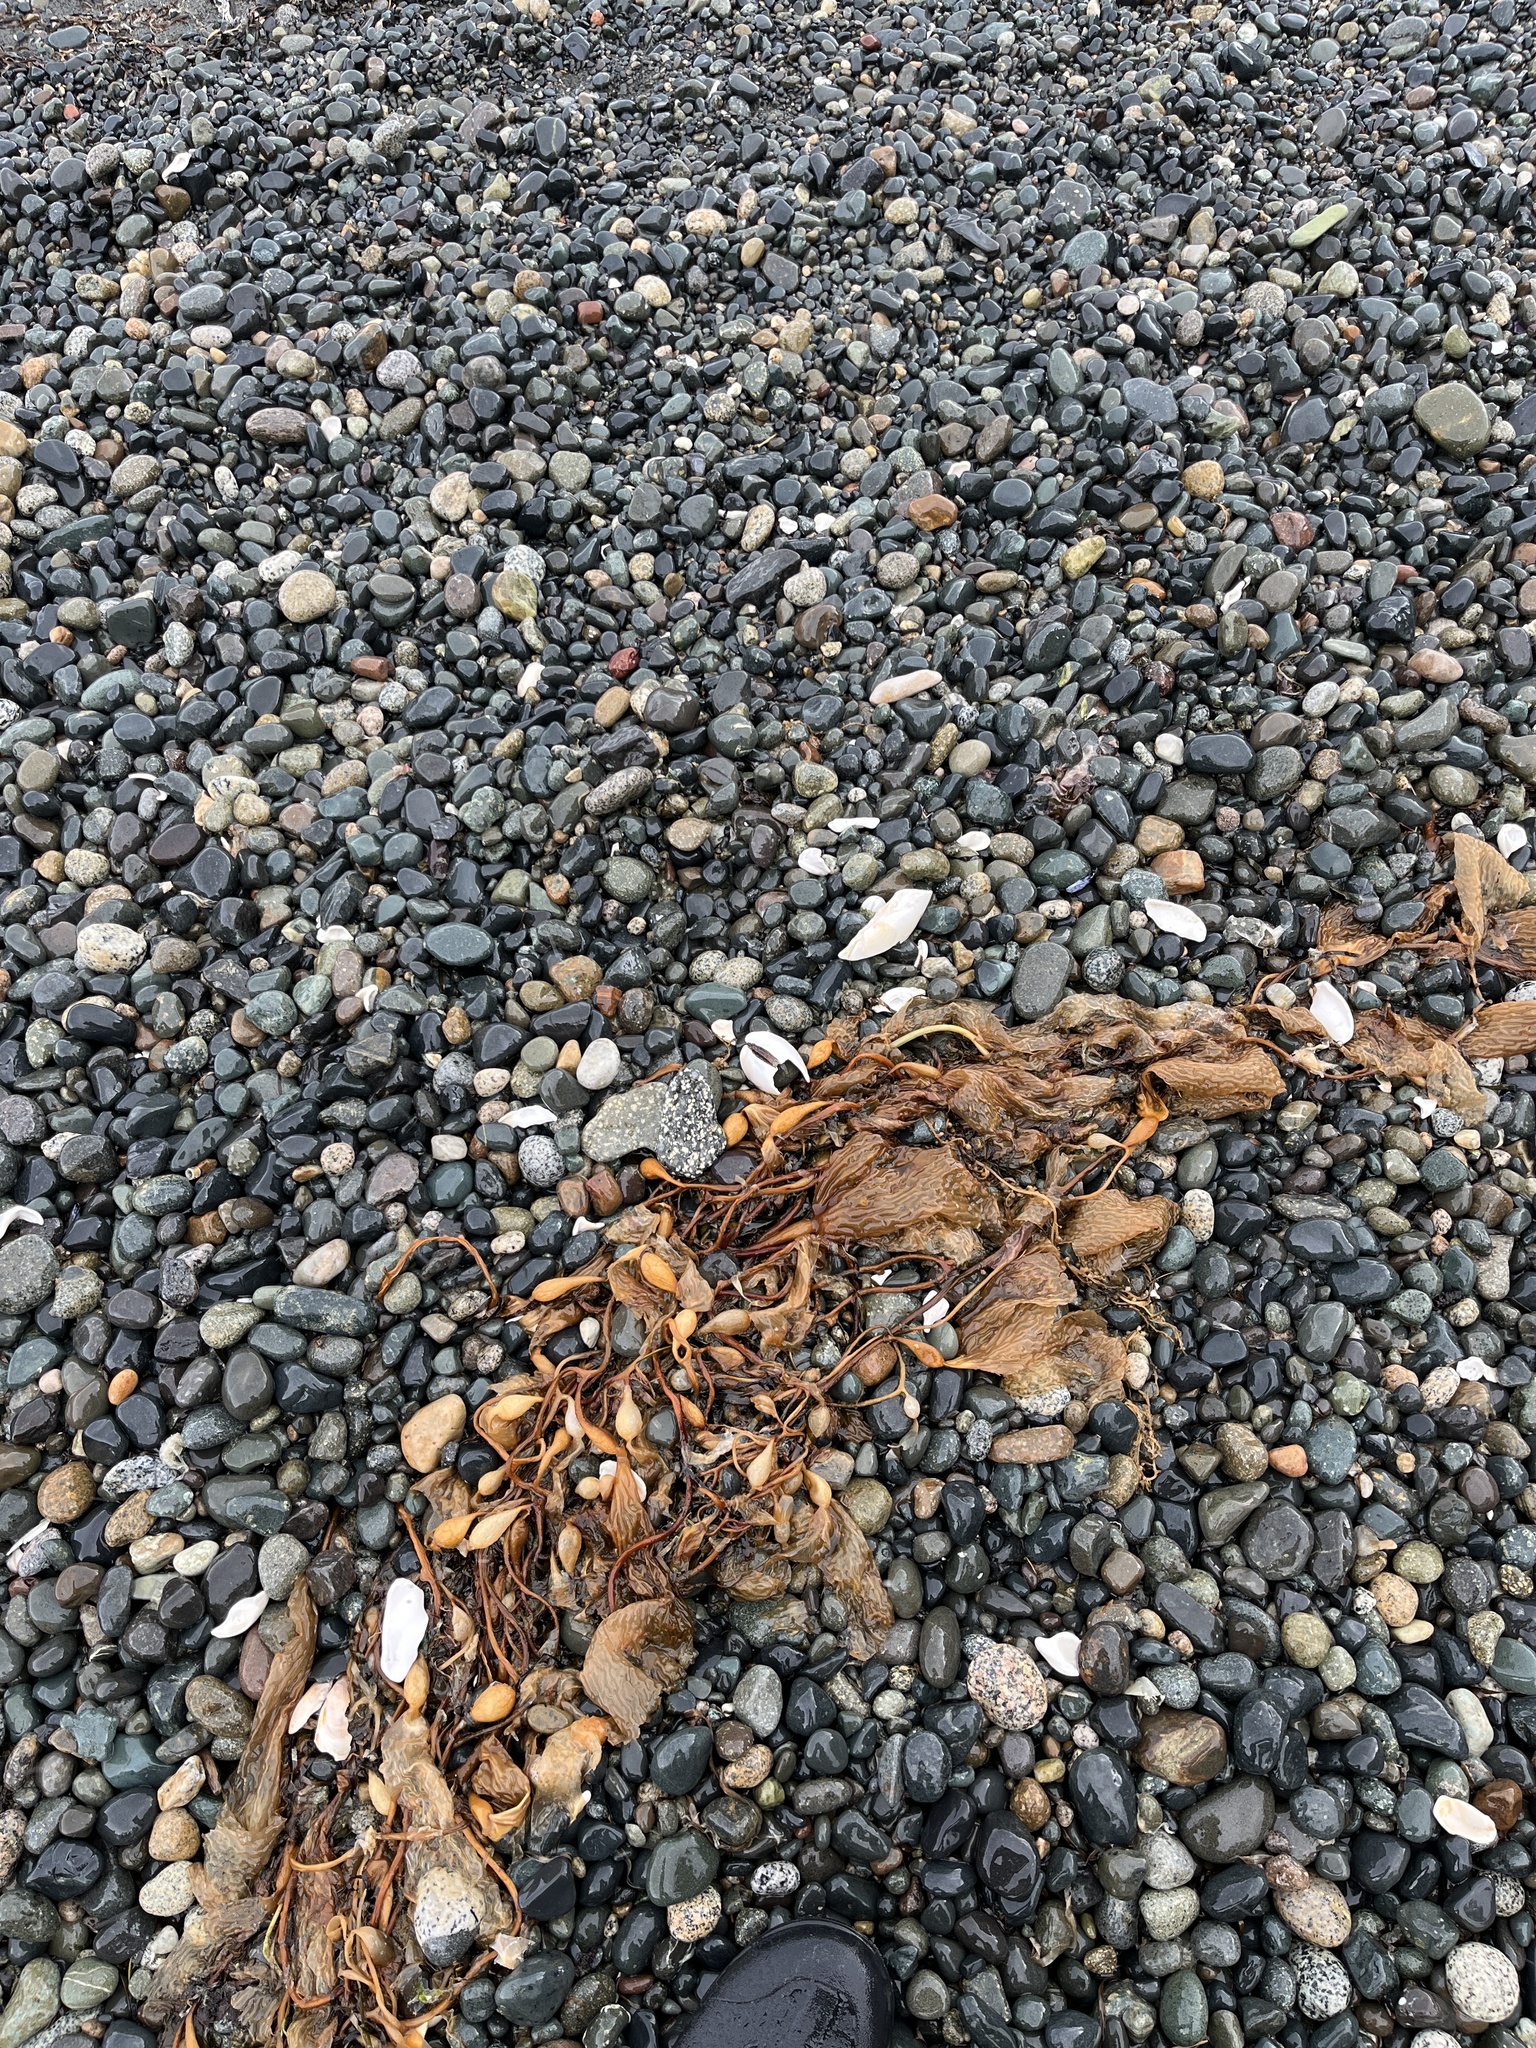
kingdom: Chromista
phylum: Ochrophyta
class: Phaeophyceae
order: Laminariales
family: Laminariaceae
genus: Macrocystis
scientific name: Macrocystis pyrifera
